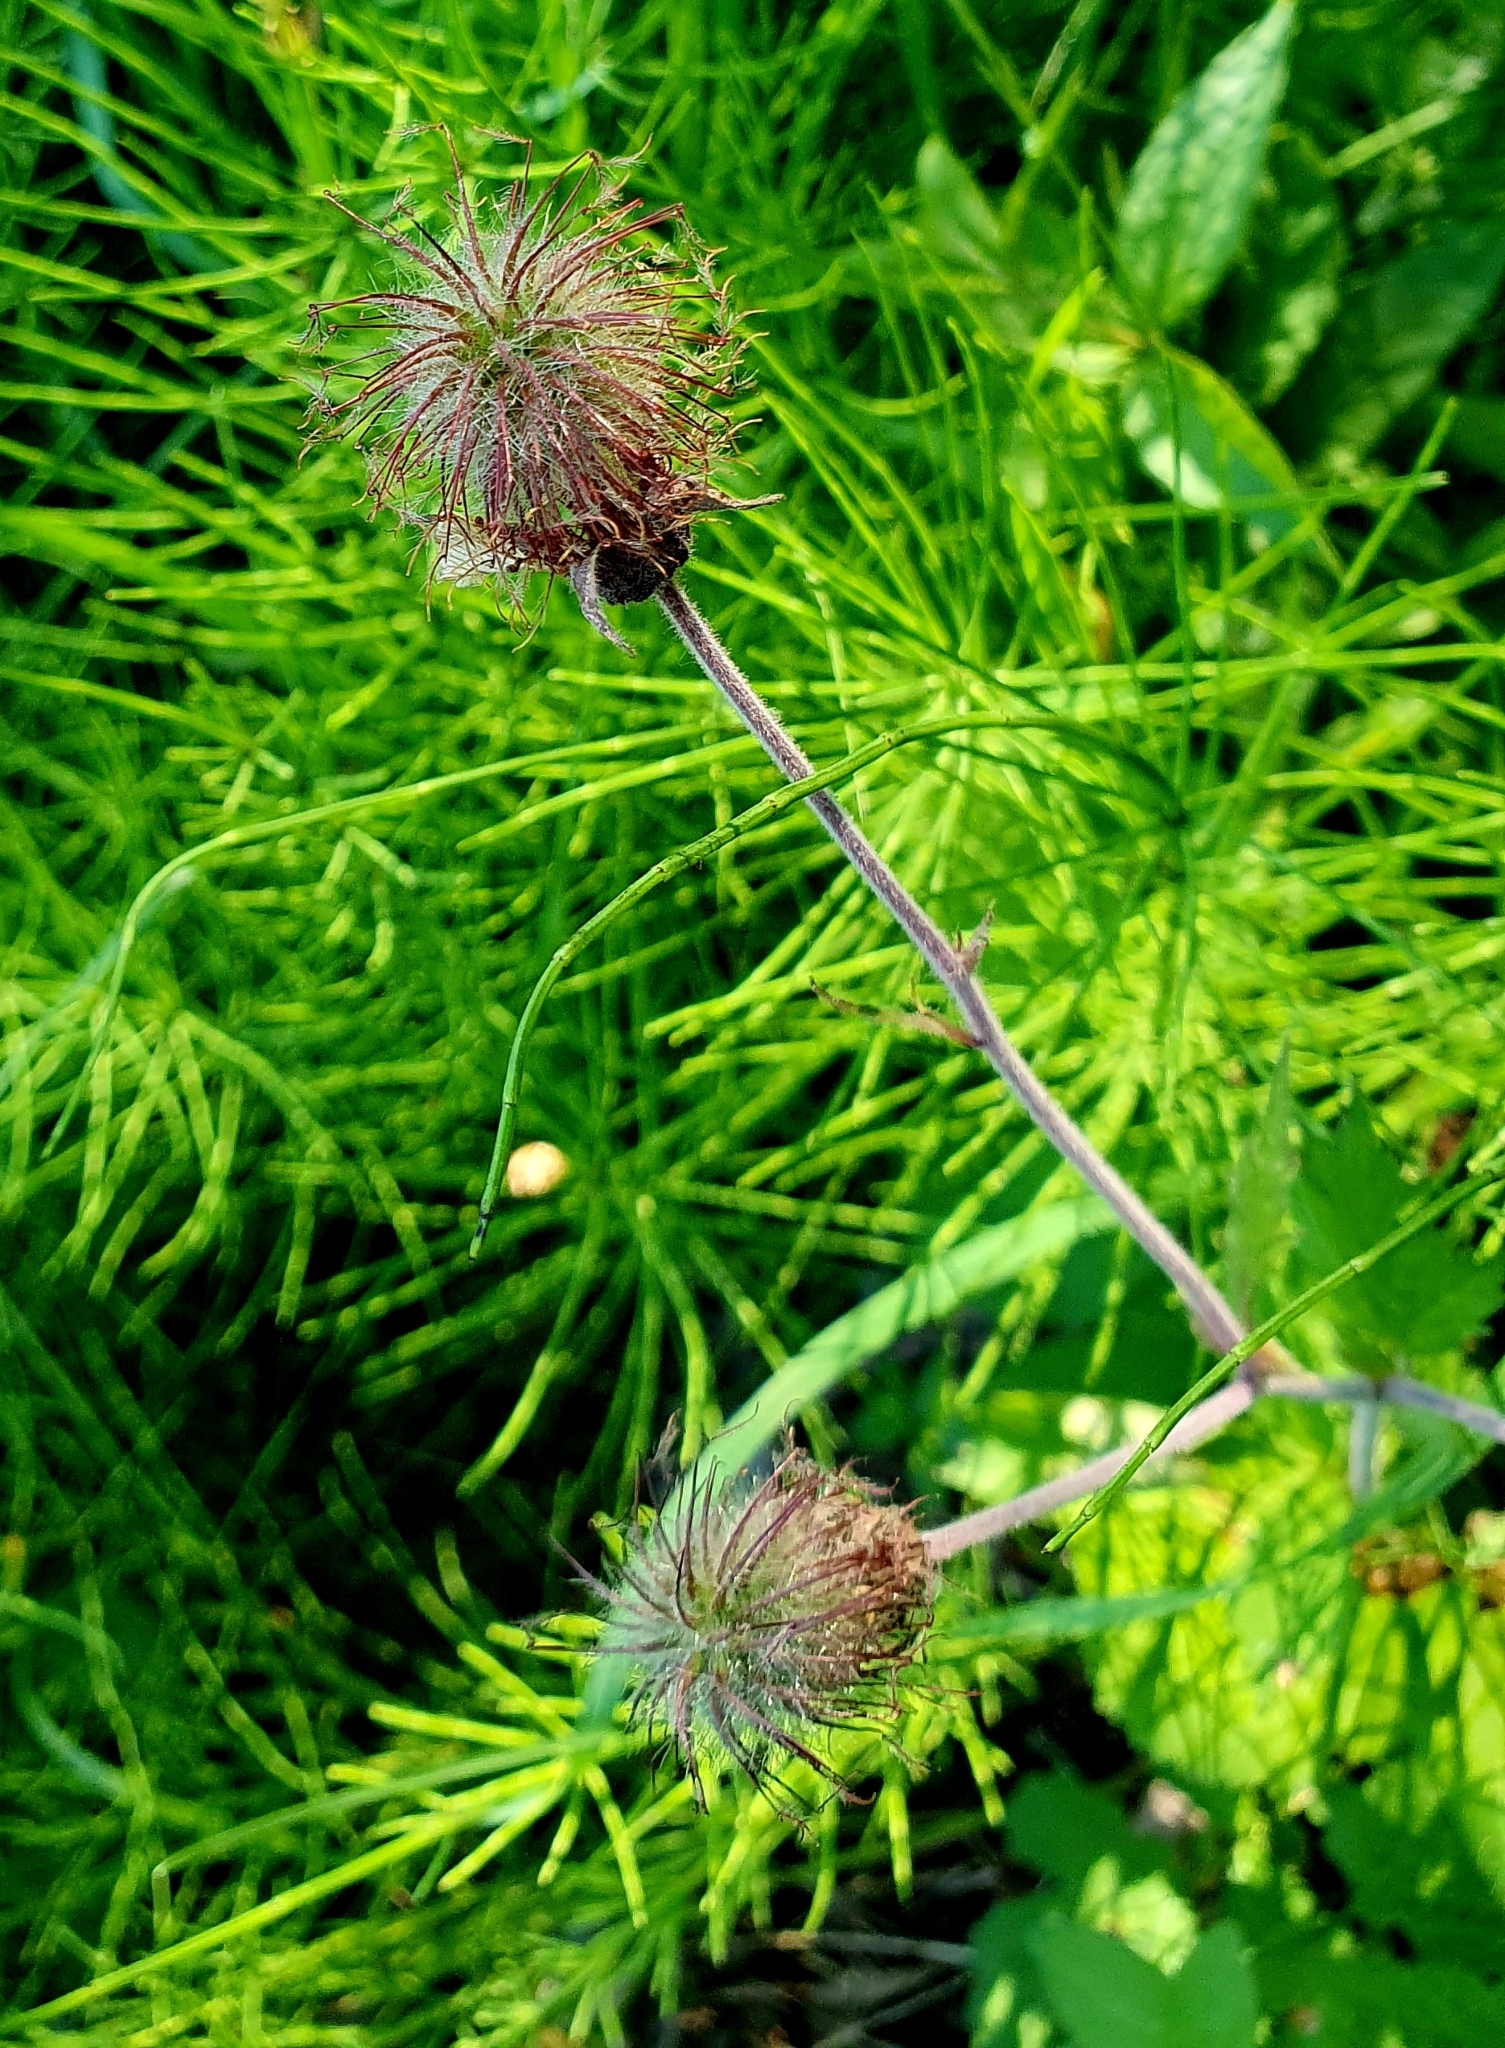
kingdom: Plantae
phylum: Tracheophyta
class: Magnoliopsida
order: Rosales
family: Rosaceae
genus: Geum
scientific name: Geum rivale
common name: Water avens
